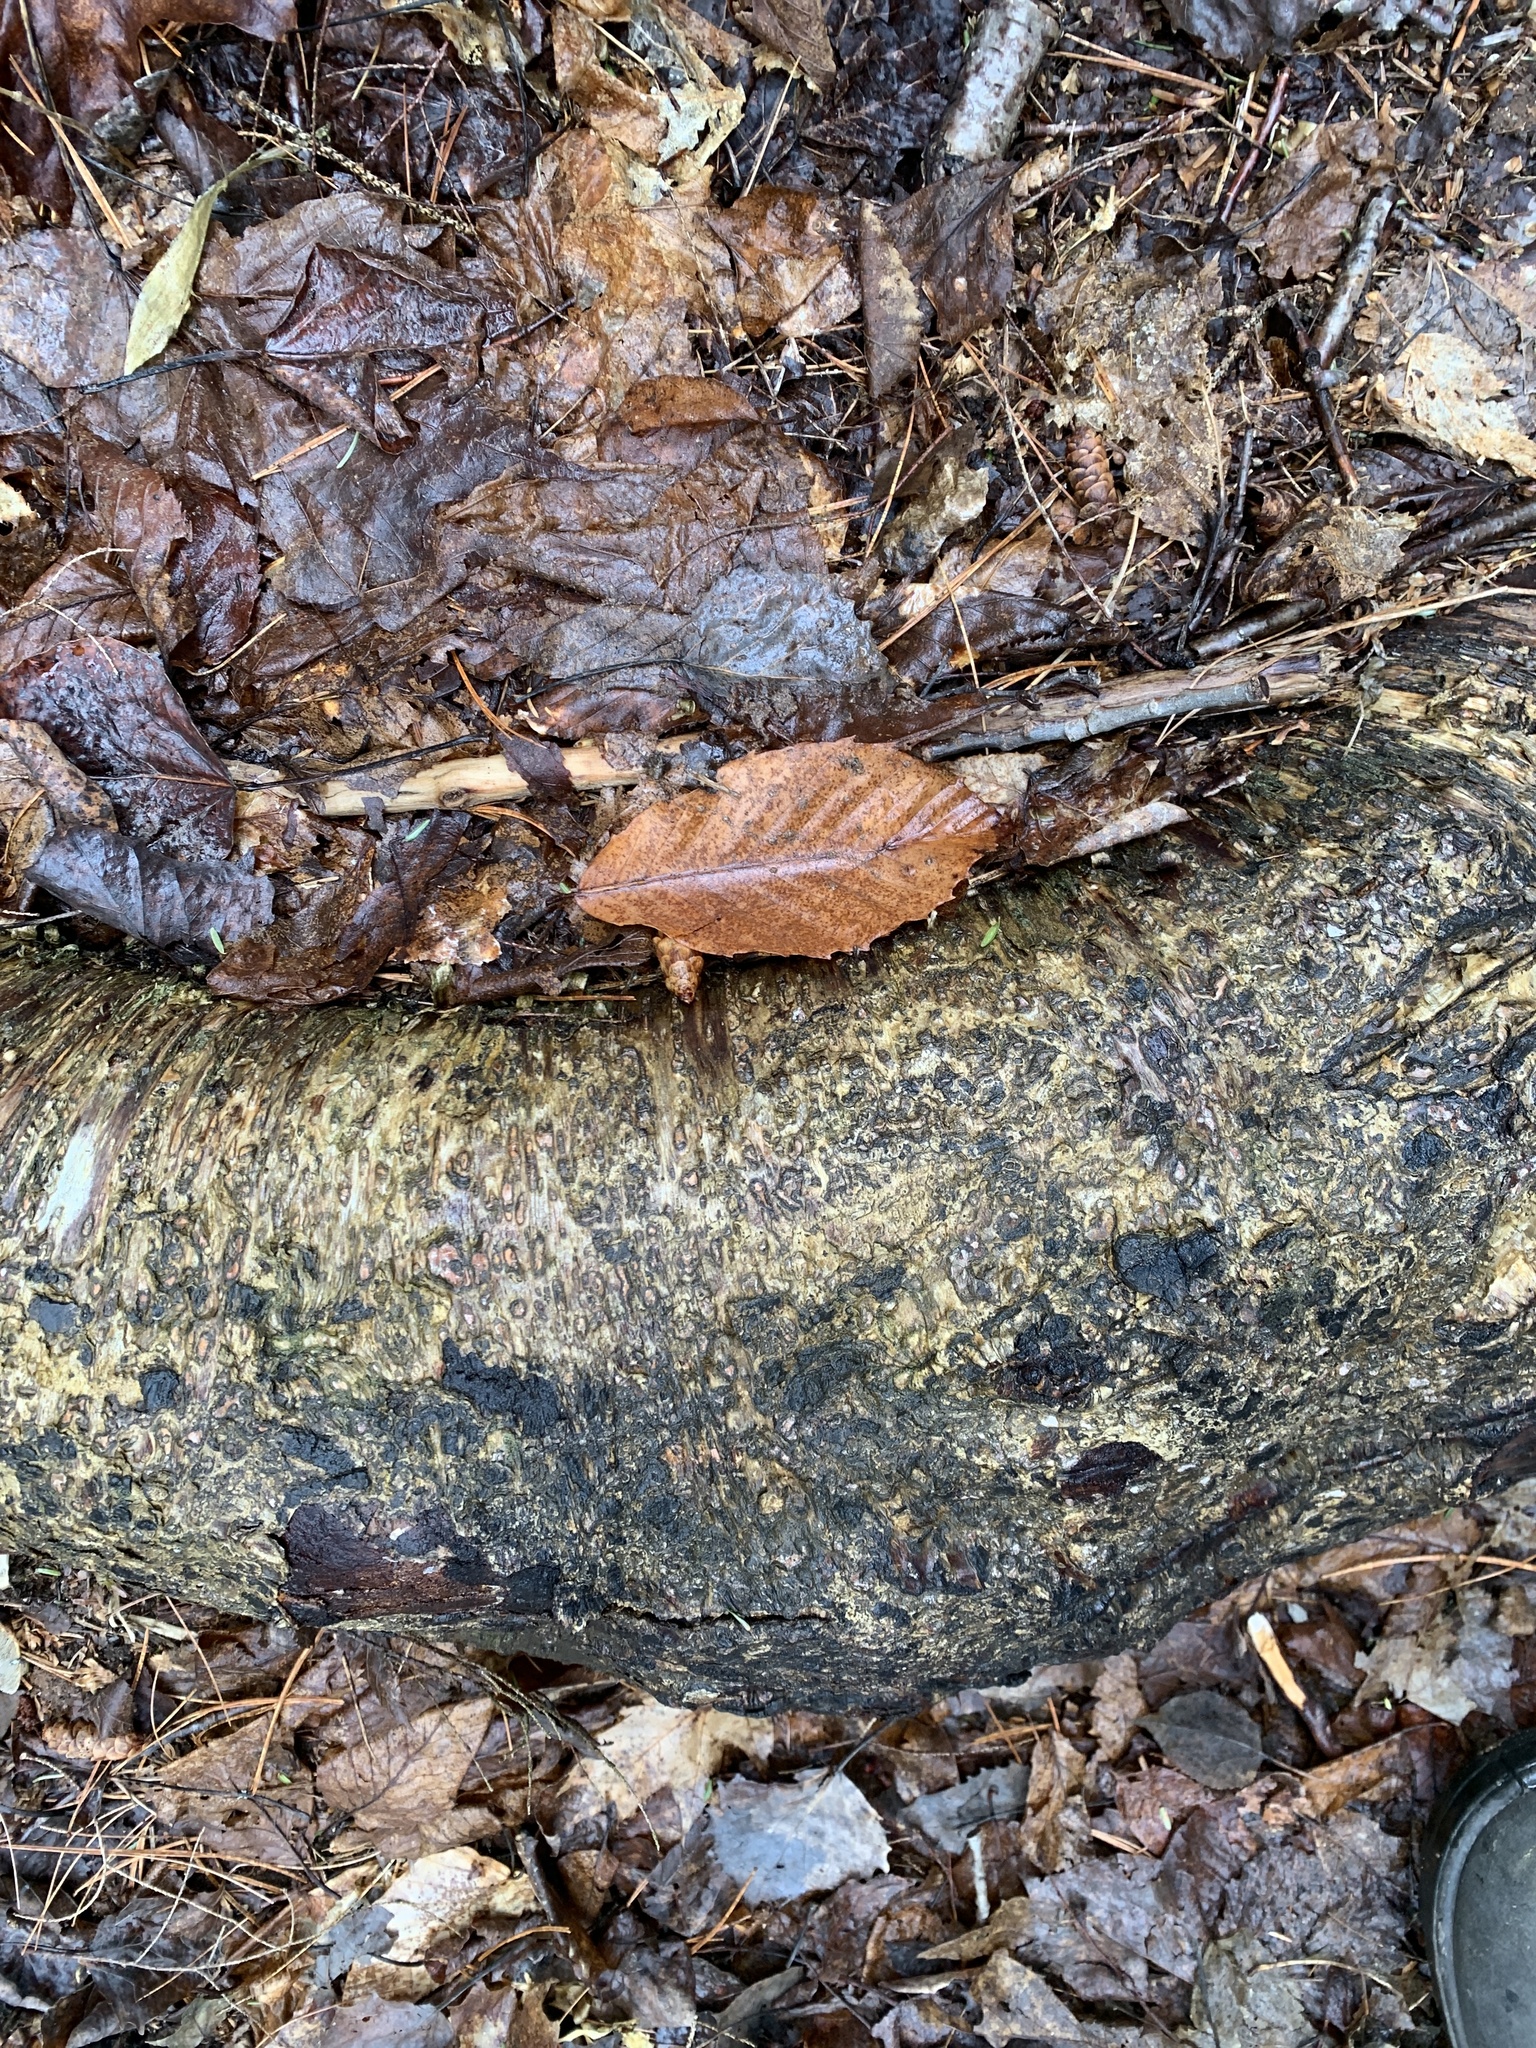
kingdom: Plantae
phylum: Tracheophyta
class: Magnoliopsida
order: Fagales
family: Betulaceae
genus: Betula
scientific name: Betula alleghaniensis
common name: Yellow birch
